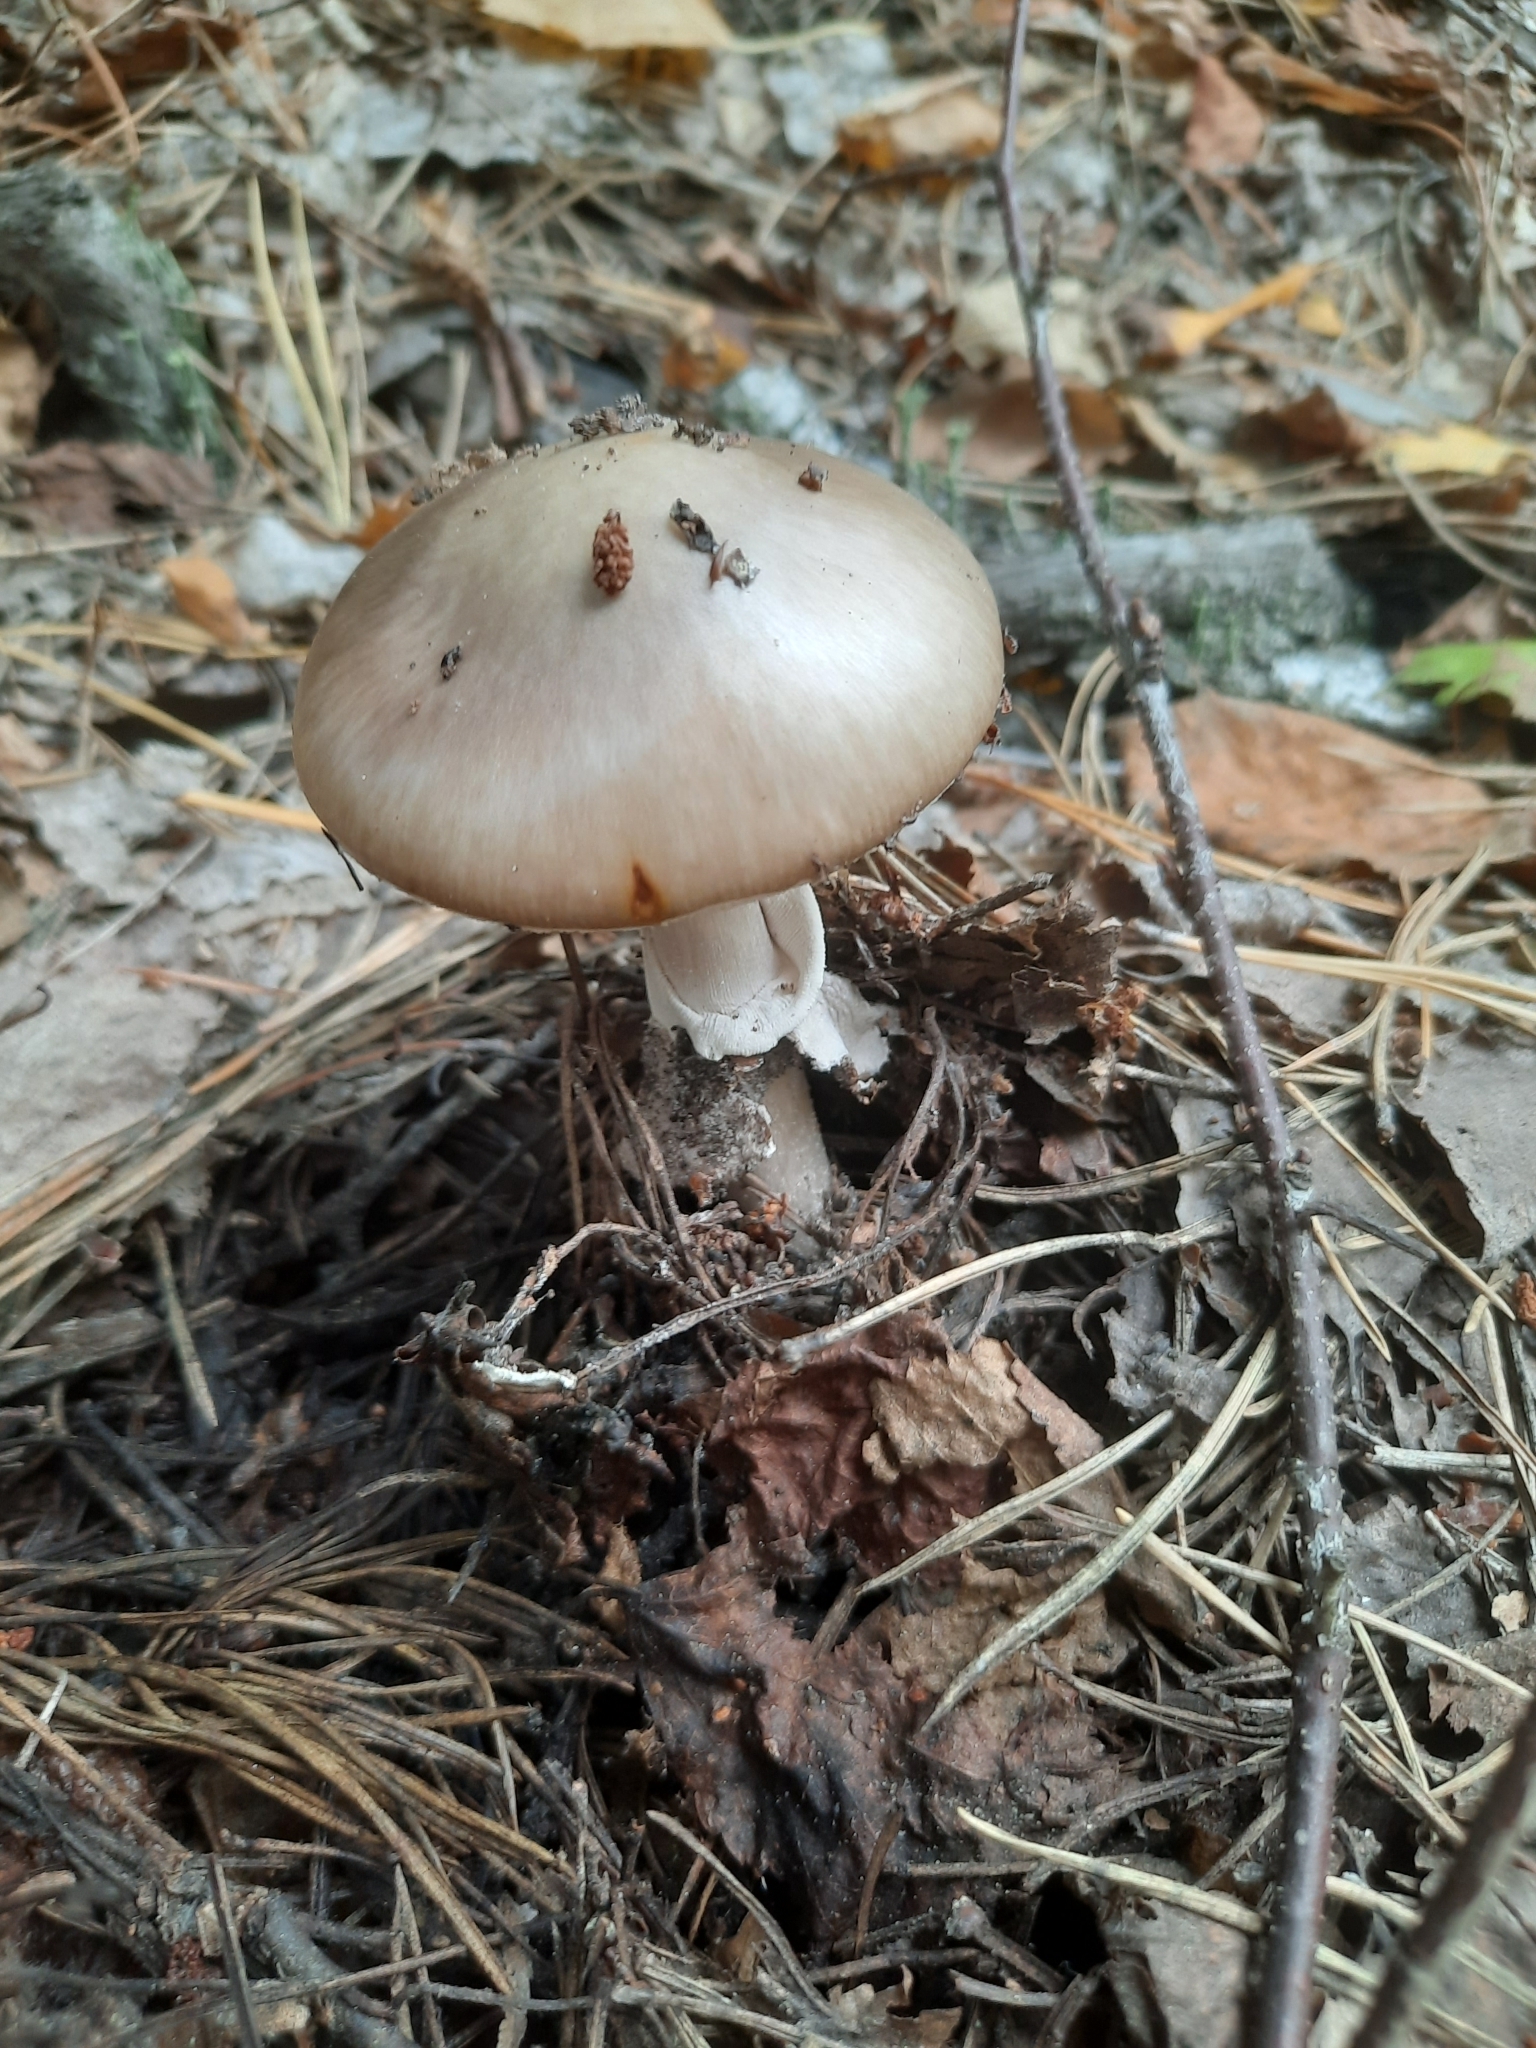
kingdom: Fungi
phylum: Basidiomycota
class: Agaricomycetes
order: Agaricales
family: Amanitaceae
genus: Amanita
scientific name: Amanita porphyria
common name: Grey veiled amanita
